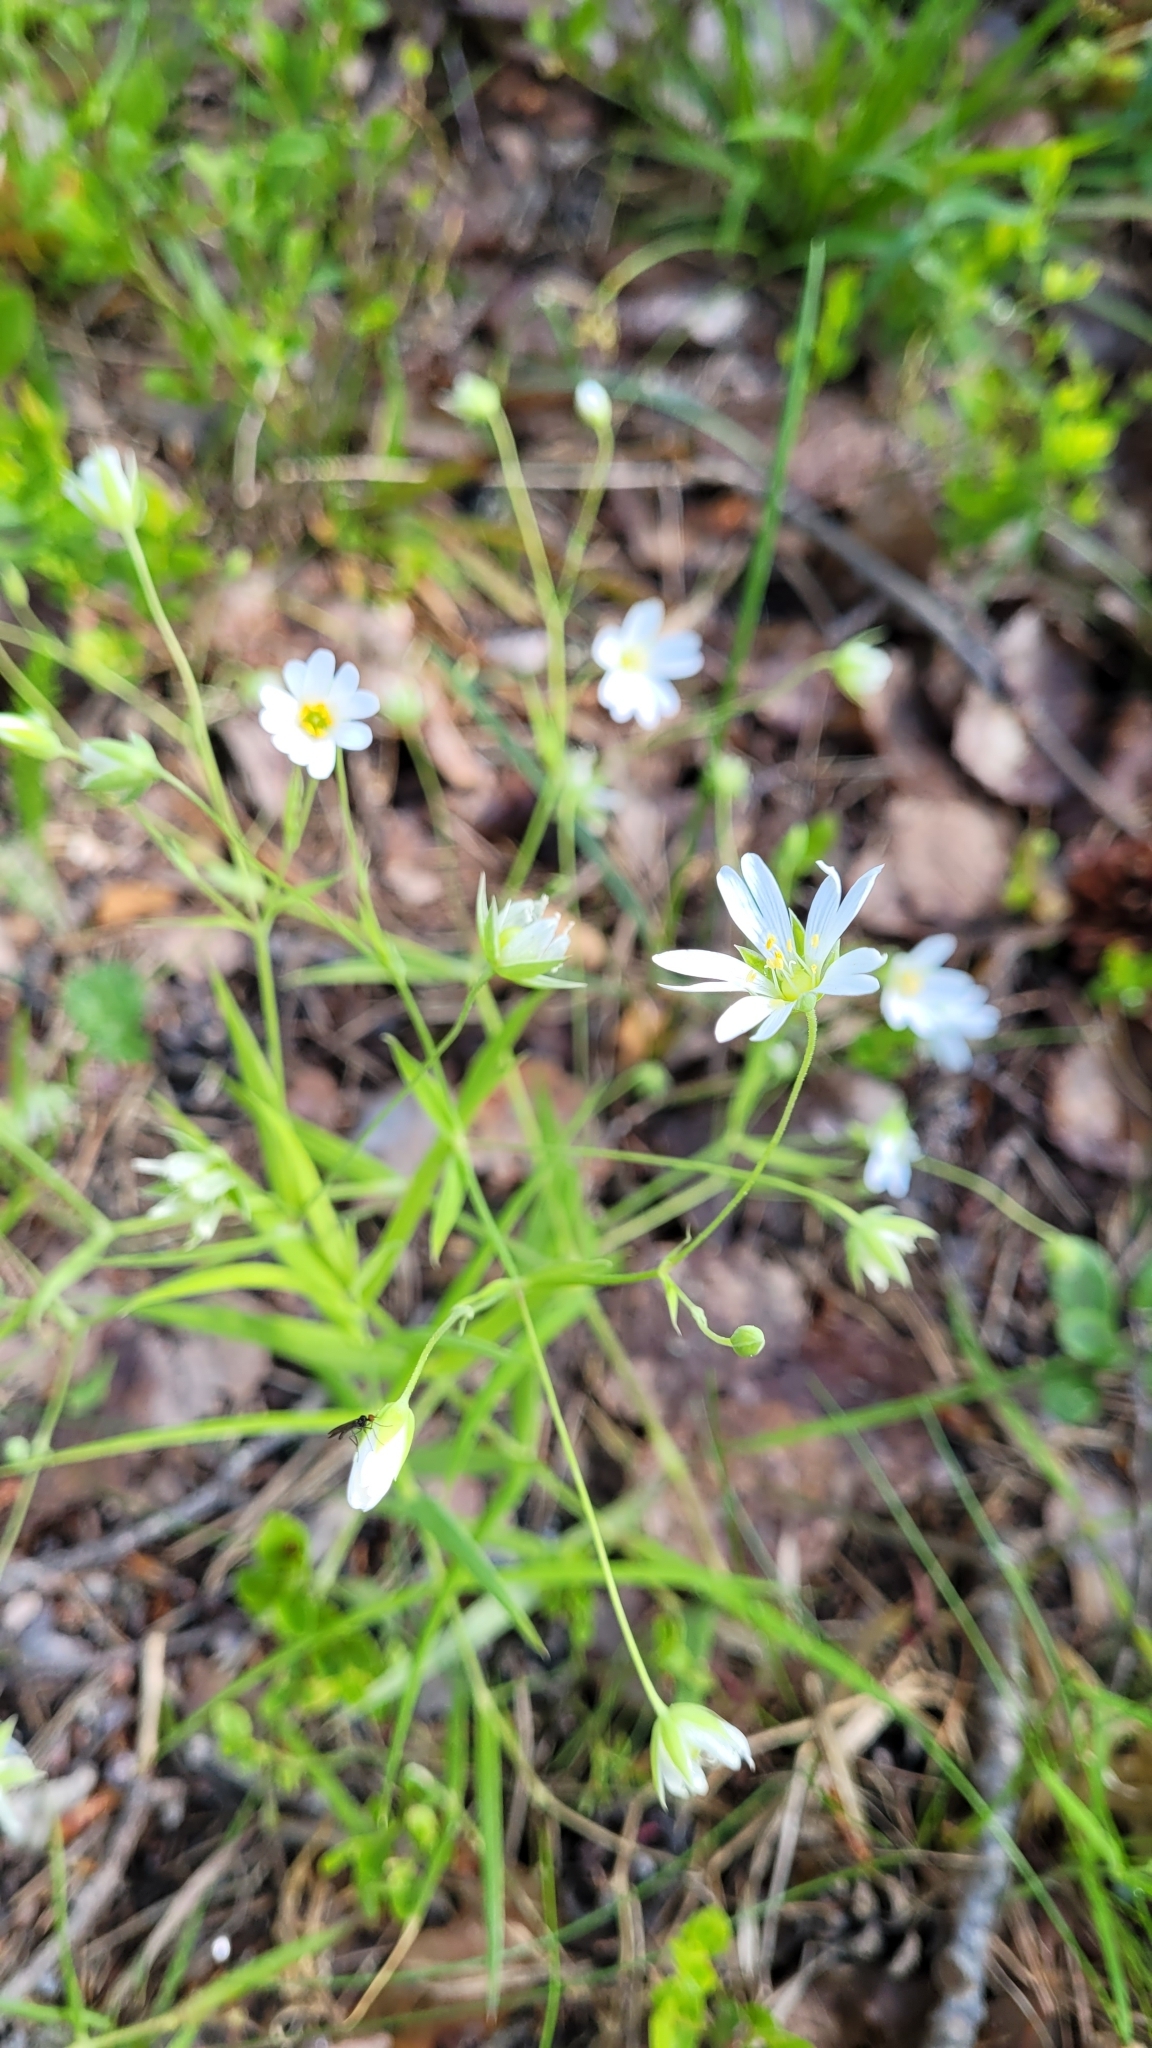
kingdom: Plantae
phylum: Tracheophyta
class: Magnoliopsida
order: Caryophyllales
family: Caryophyllaceae
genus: Rabelera
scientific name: Rabelera holostea
